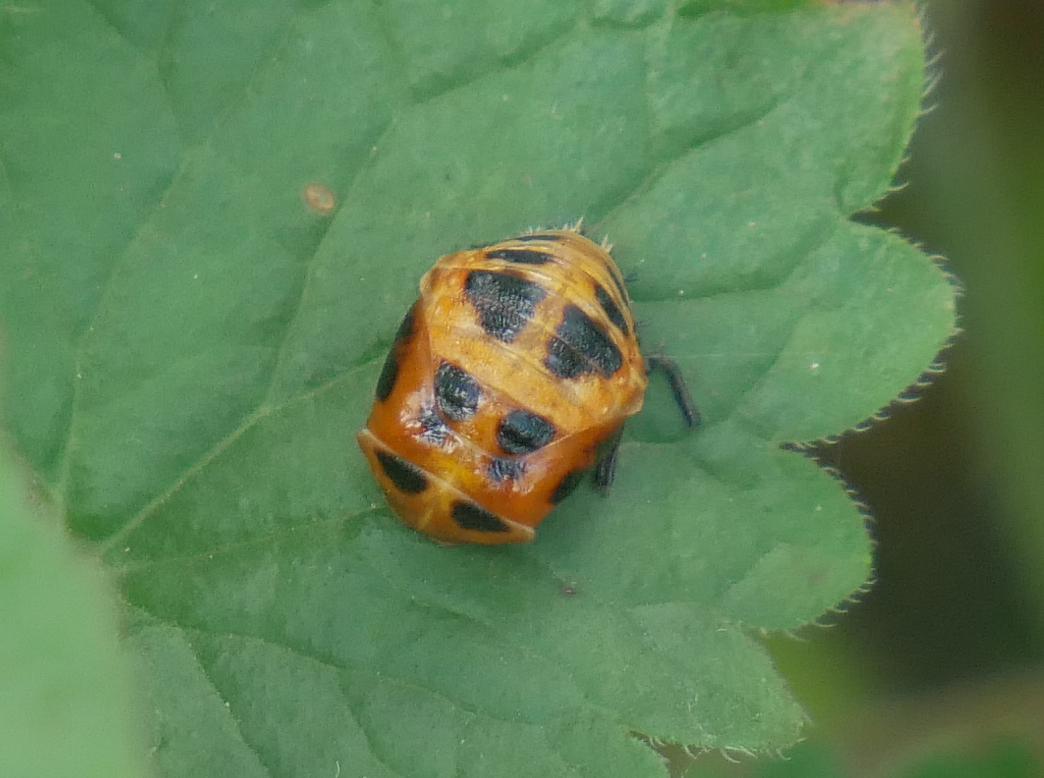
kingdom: Animalia
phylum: Arthropoda
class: Insecta
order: Coleoptera
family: Coccinellidae
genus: Harmonia
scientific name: Harmonia axyridis
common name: Harlequin ladybird
